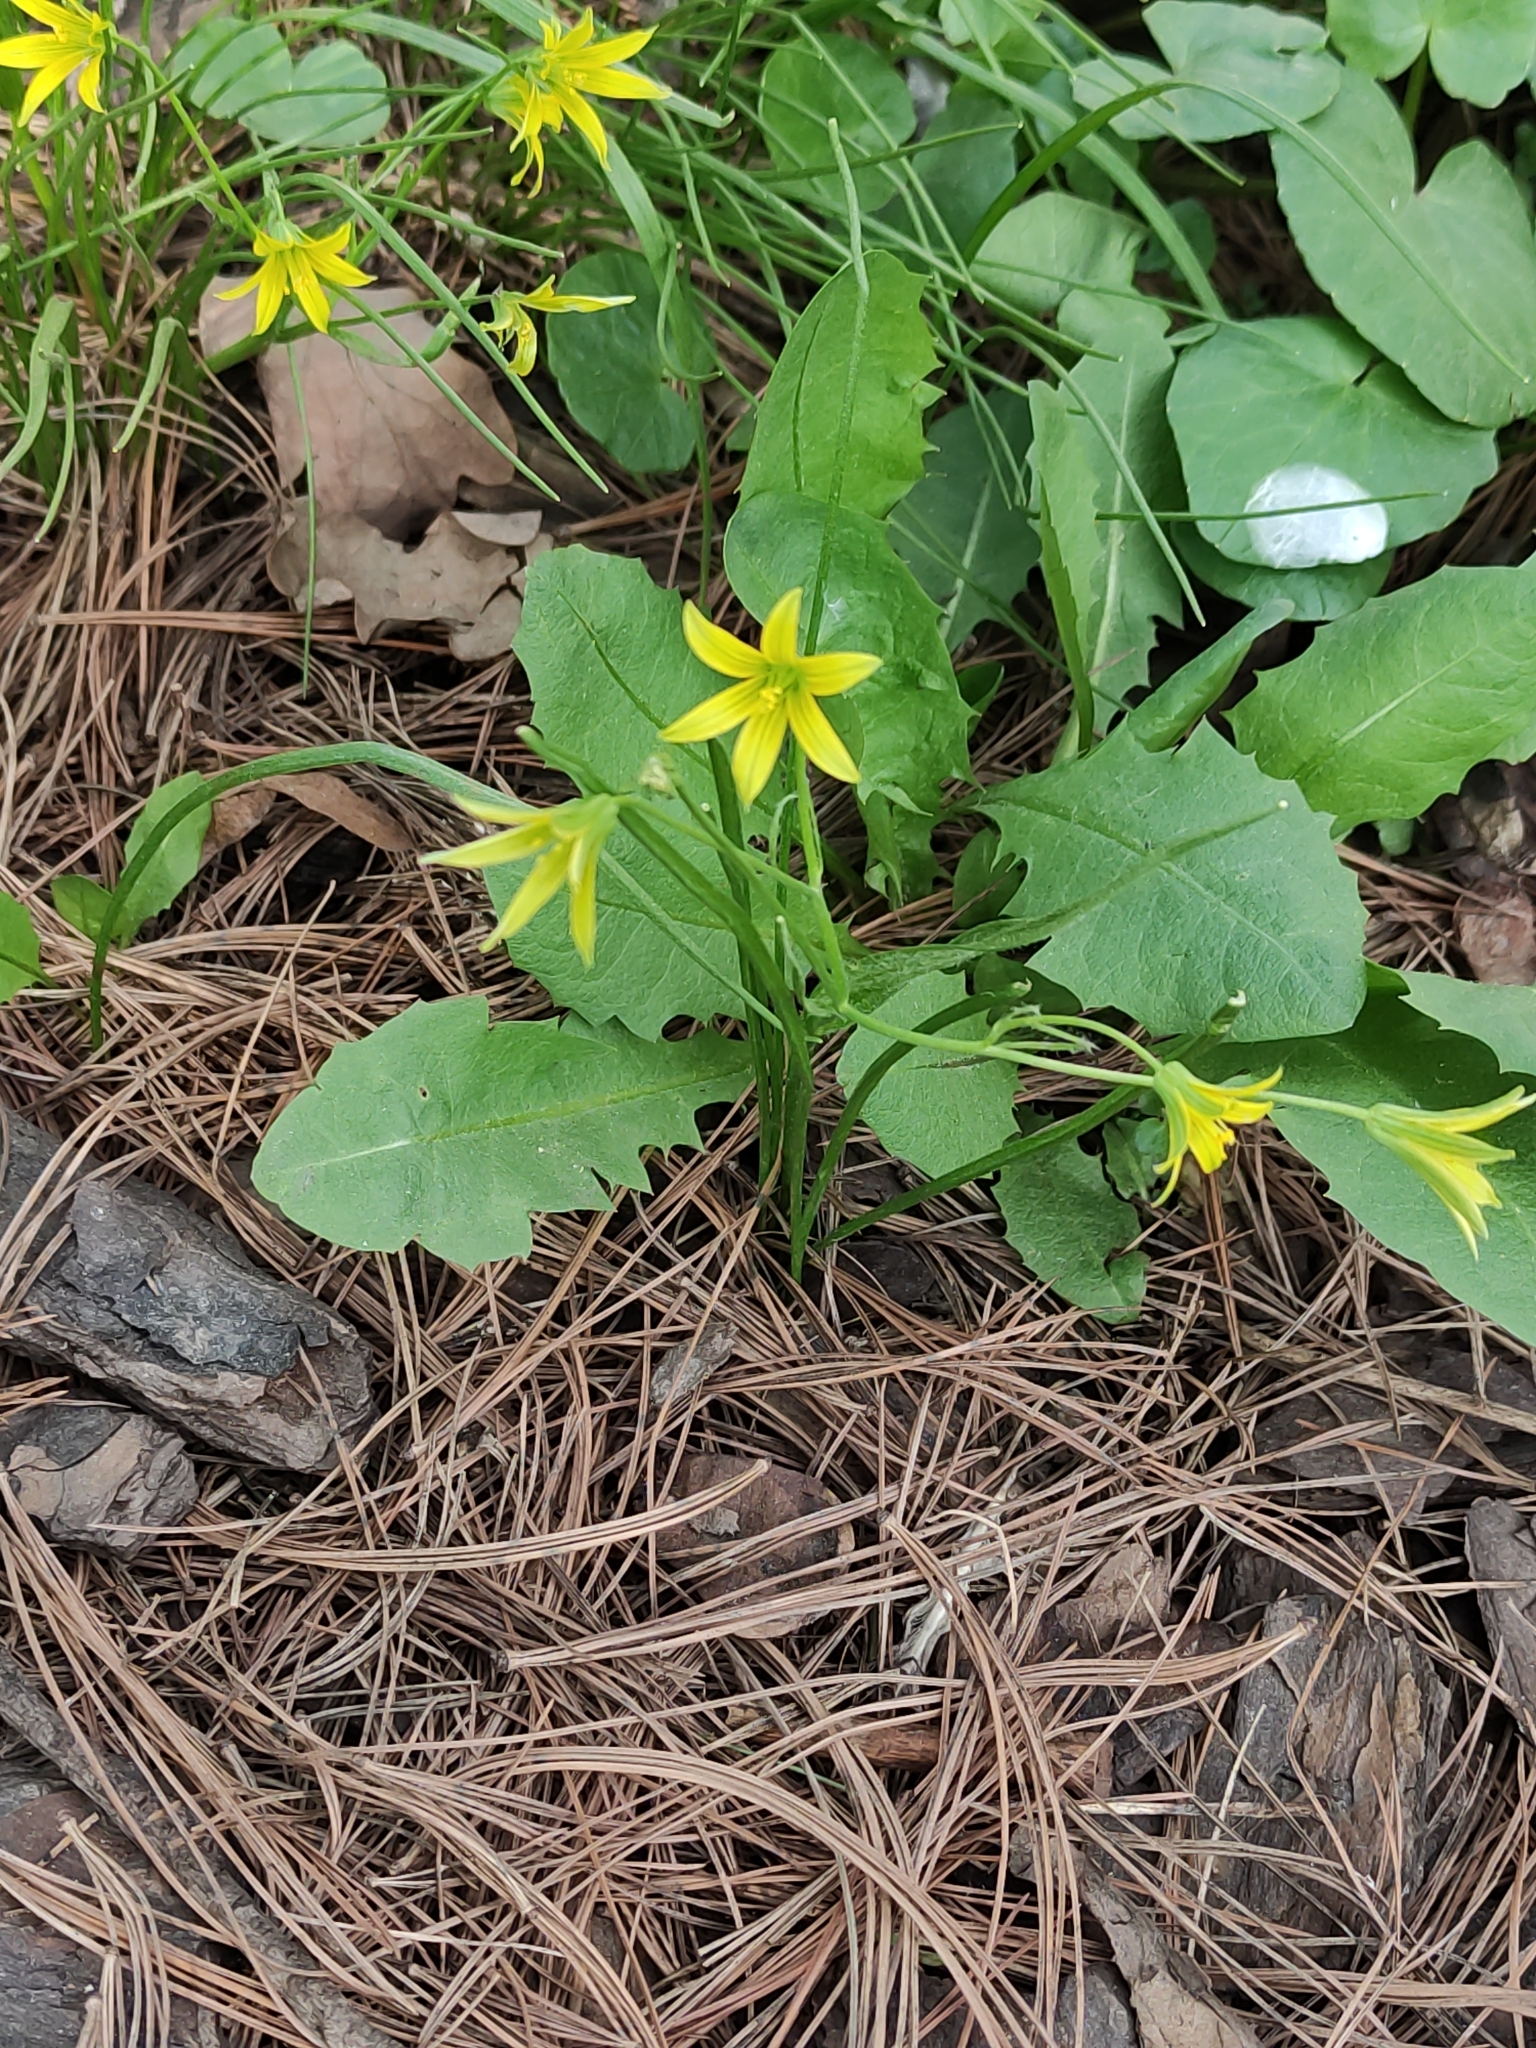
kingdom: Plantae
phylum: Tracheophyta
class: Liliopsida
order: Liliales
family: Liliaceae
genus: Gagea
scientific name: Gagea minima
